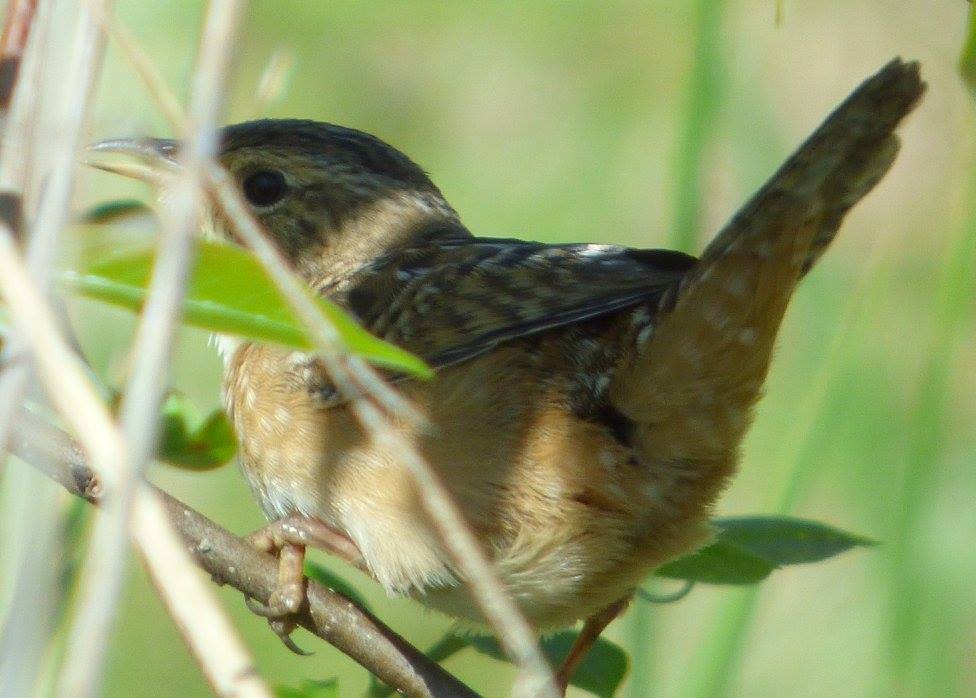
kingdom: Animalia
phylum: Chordata
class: Aves
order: Passeriformes
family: Troglodytidae
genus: Cistothorus
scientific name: Cistothorus platensis
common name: Sedge wren
